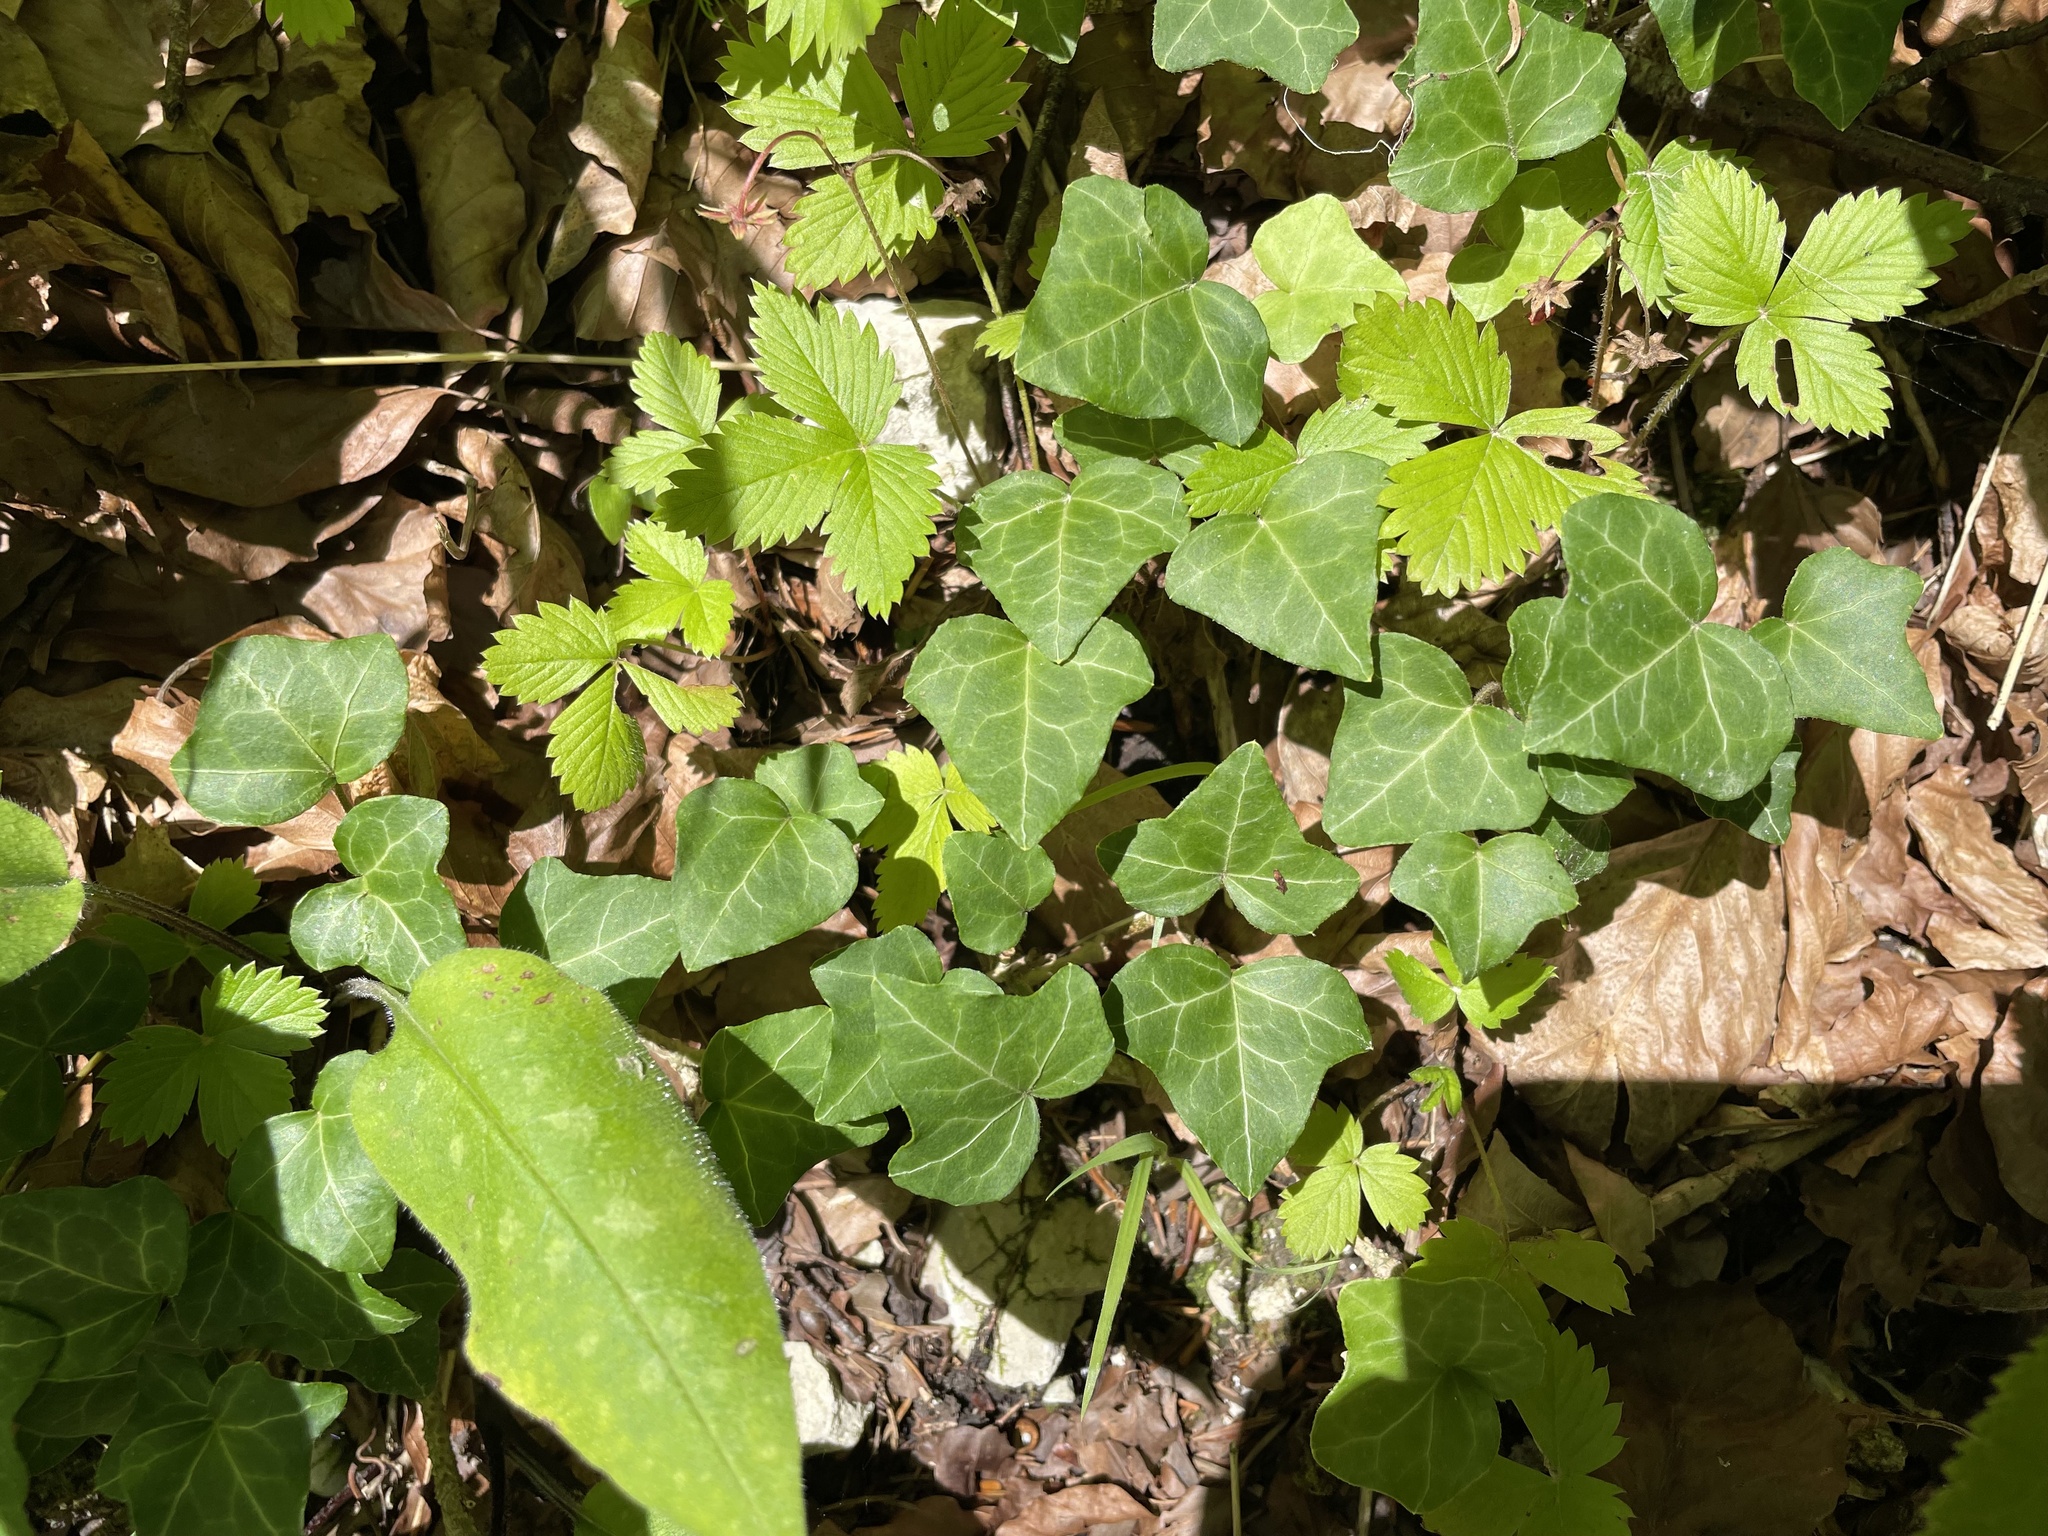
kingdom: Plantae
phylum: Tracheophyta
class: Magnoliopsida
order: Apiales
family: Araliaceae
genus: Hedera
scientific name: Hedera helix
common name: Ivy
